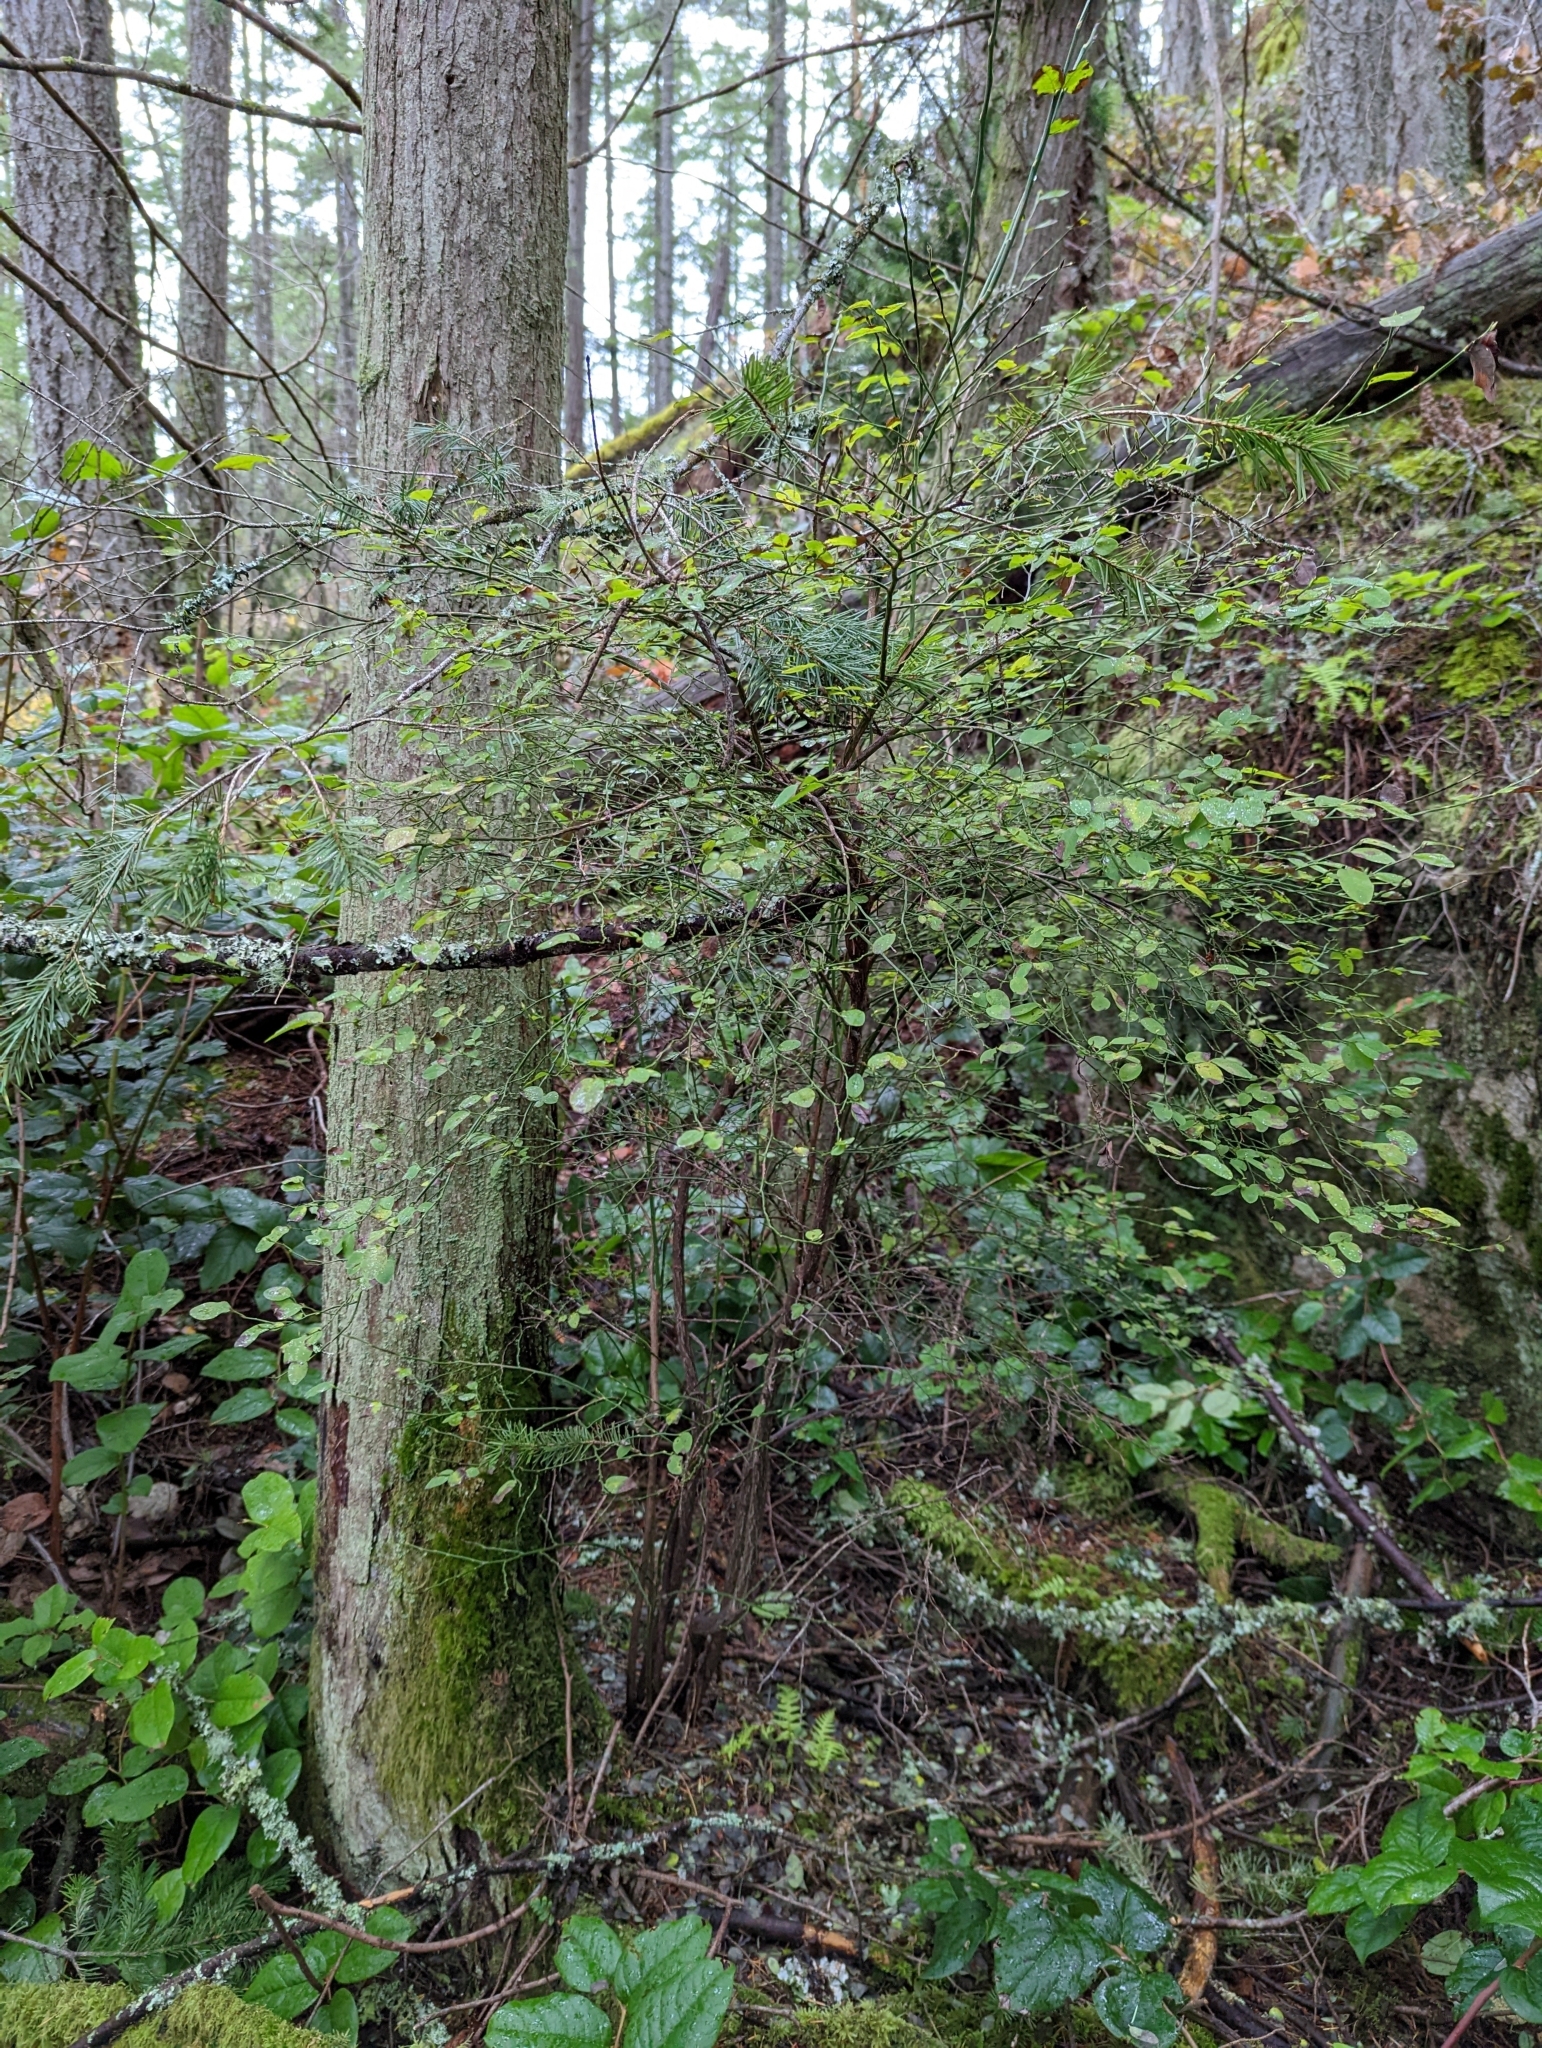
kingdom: Plantae
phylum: Tracheophyta
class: Magnoliopsida
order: Ericales
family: Ericaceae
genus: Vaccinium
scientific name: Vaccinium parvifolium
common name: Red-huckleberry
